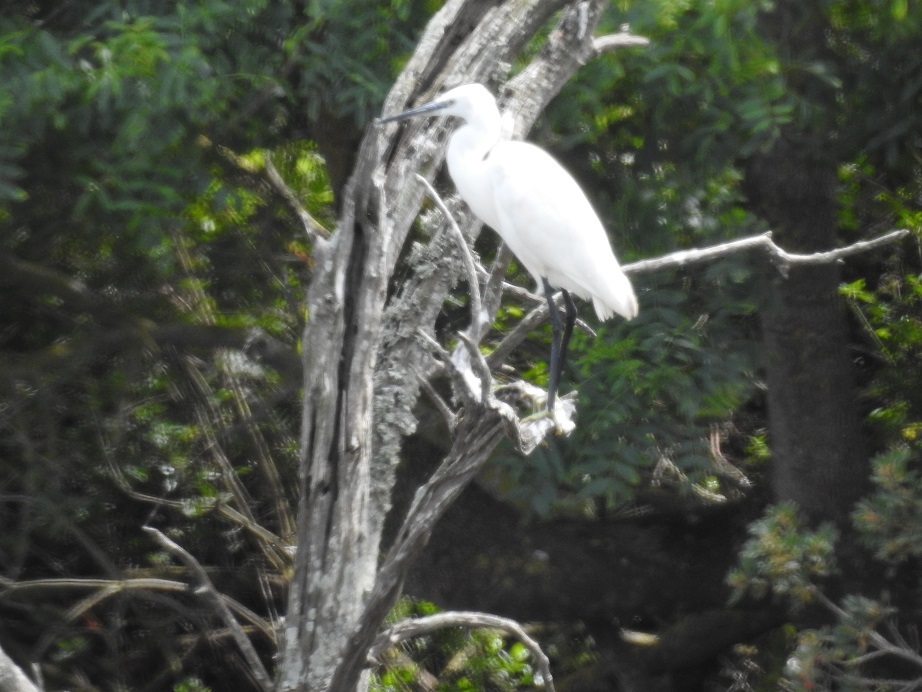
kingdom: Animalia
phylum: Chordata
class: Aves
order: Pelecaniformes
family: Ardeidae
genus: Egretta
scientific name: Egretta garzetta
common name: Little egret
